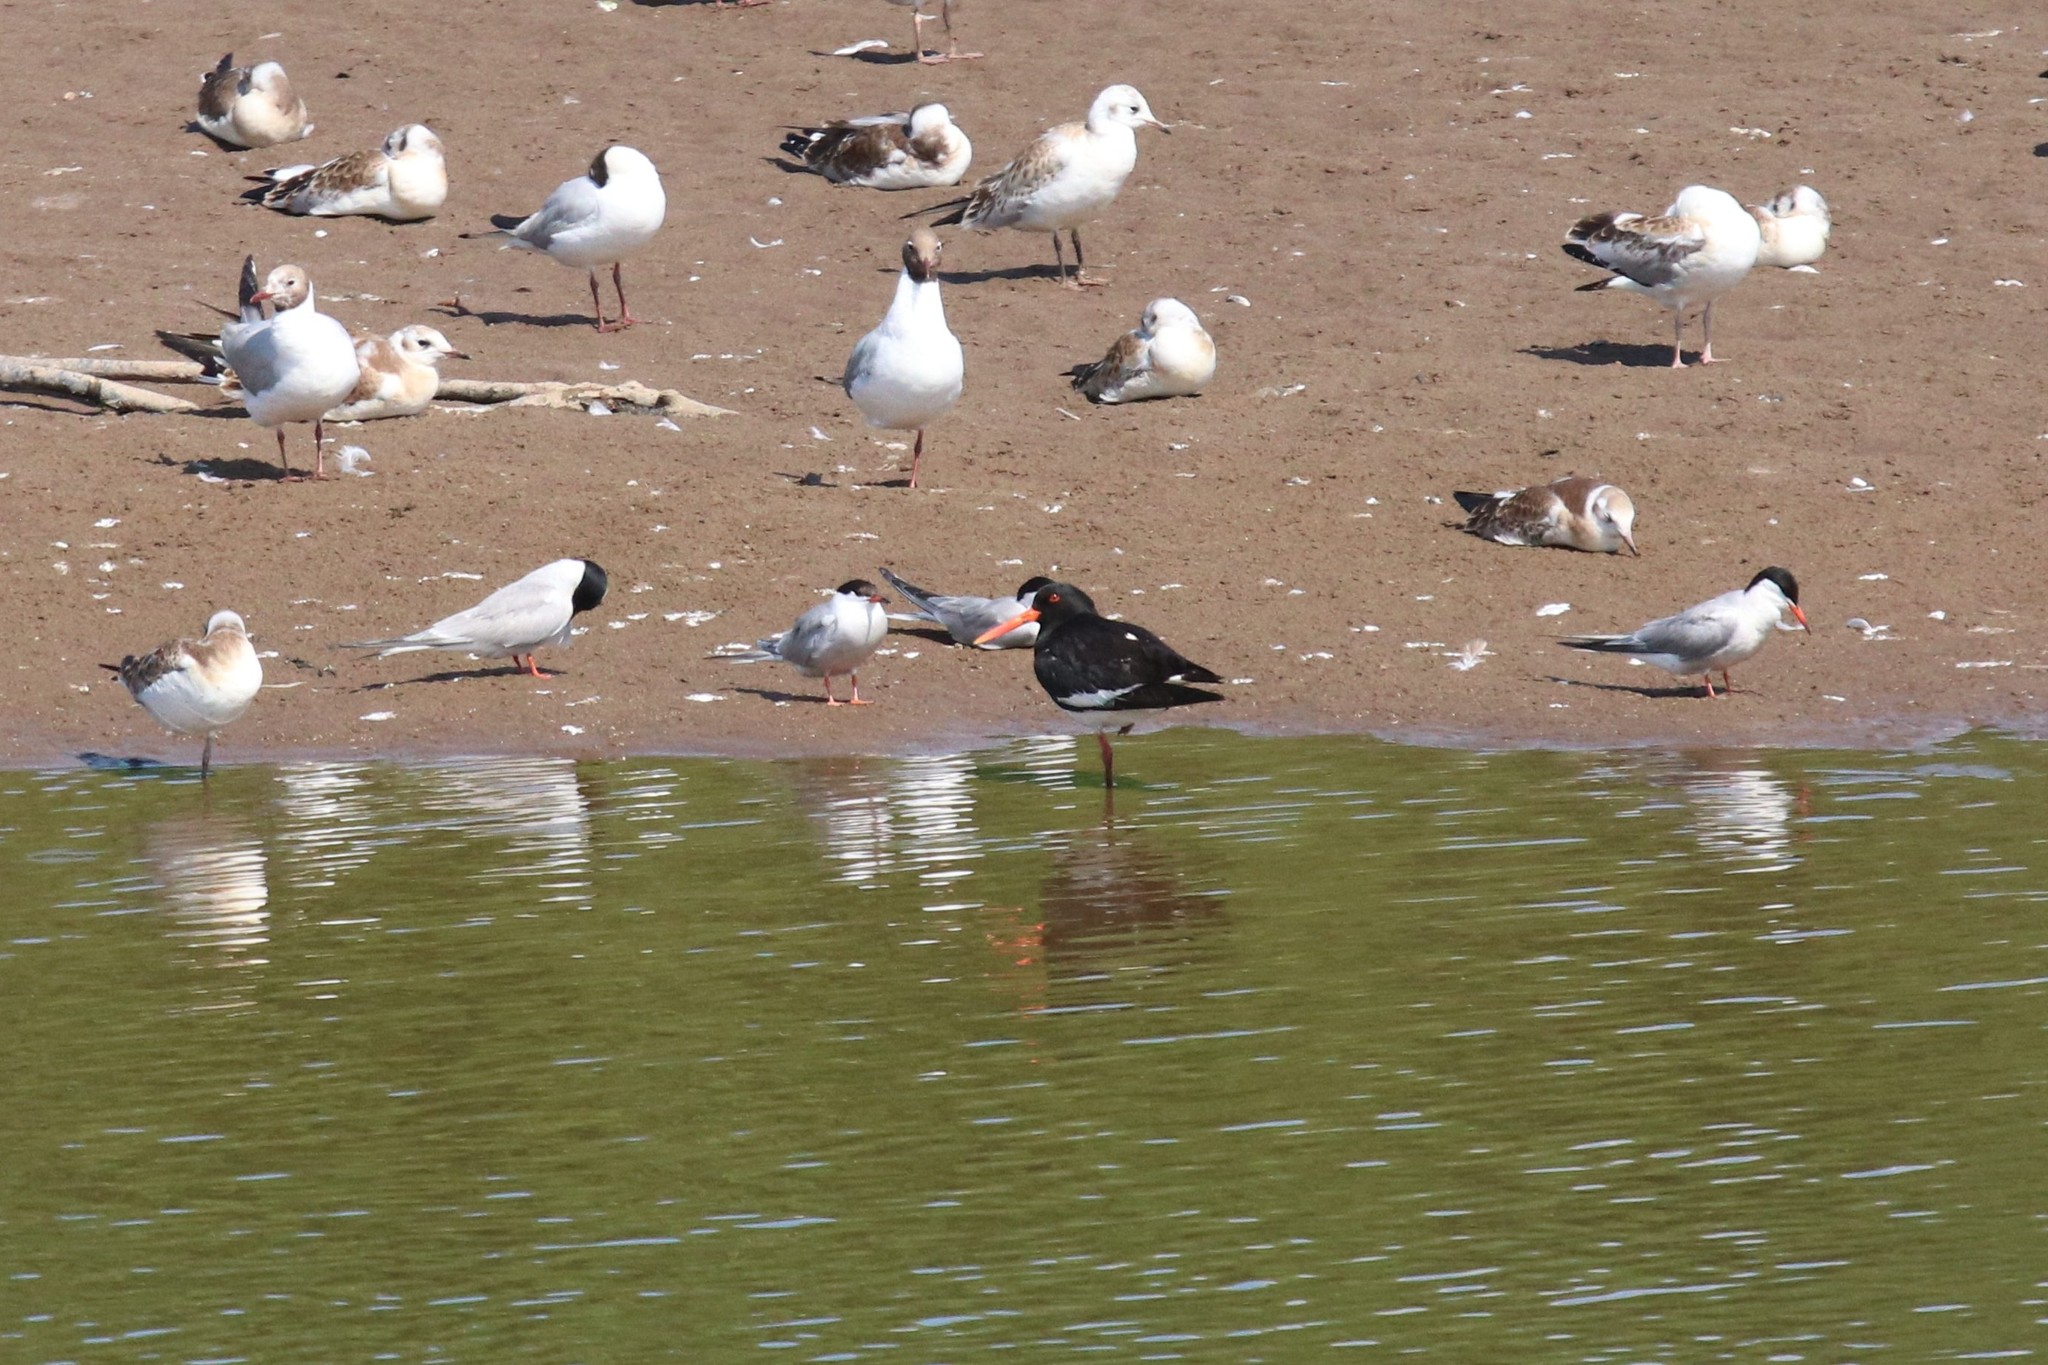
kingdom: Animalia
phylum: Chordata
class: Aves
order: Charadriiformes
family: Haematopodidae
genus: Haematopus
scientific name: Haematopus ostralegus
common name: Eurasian oystercatcher
